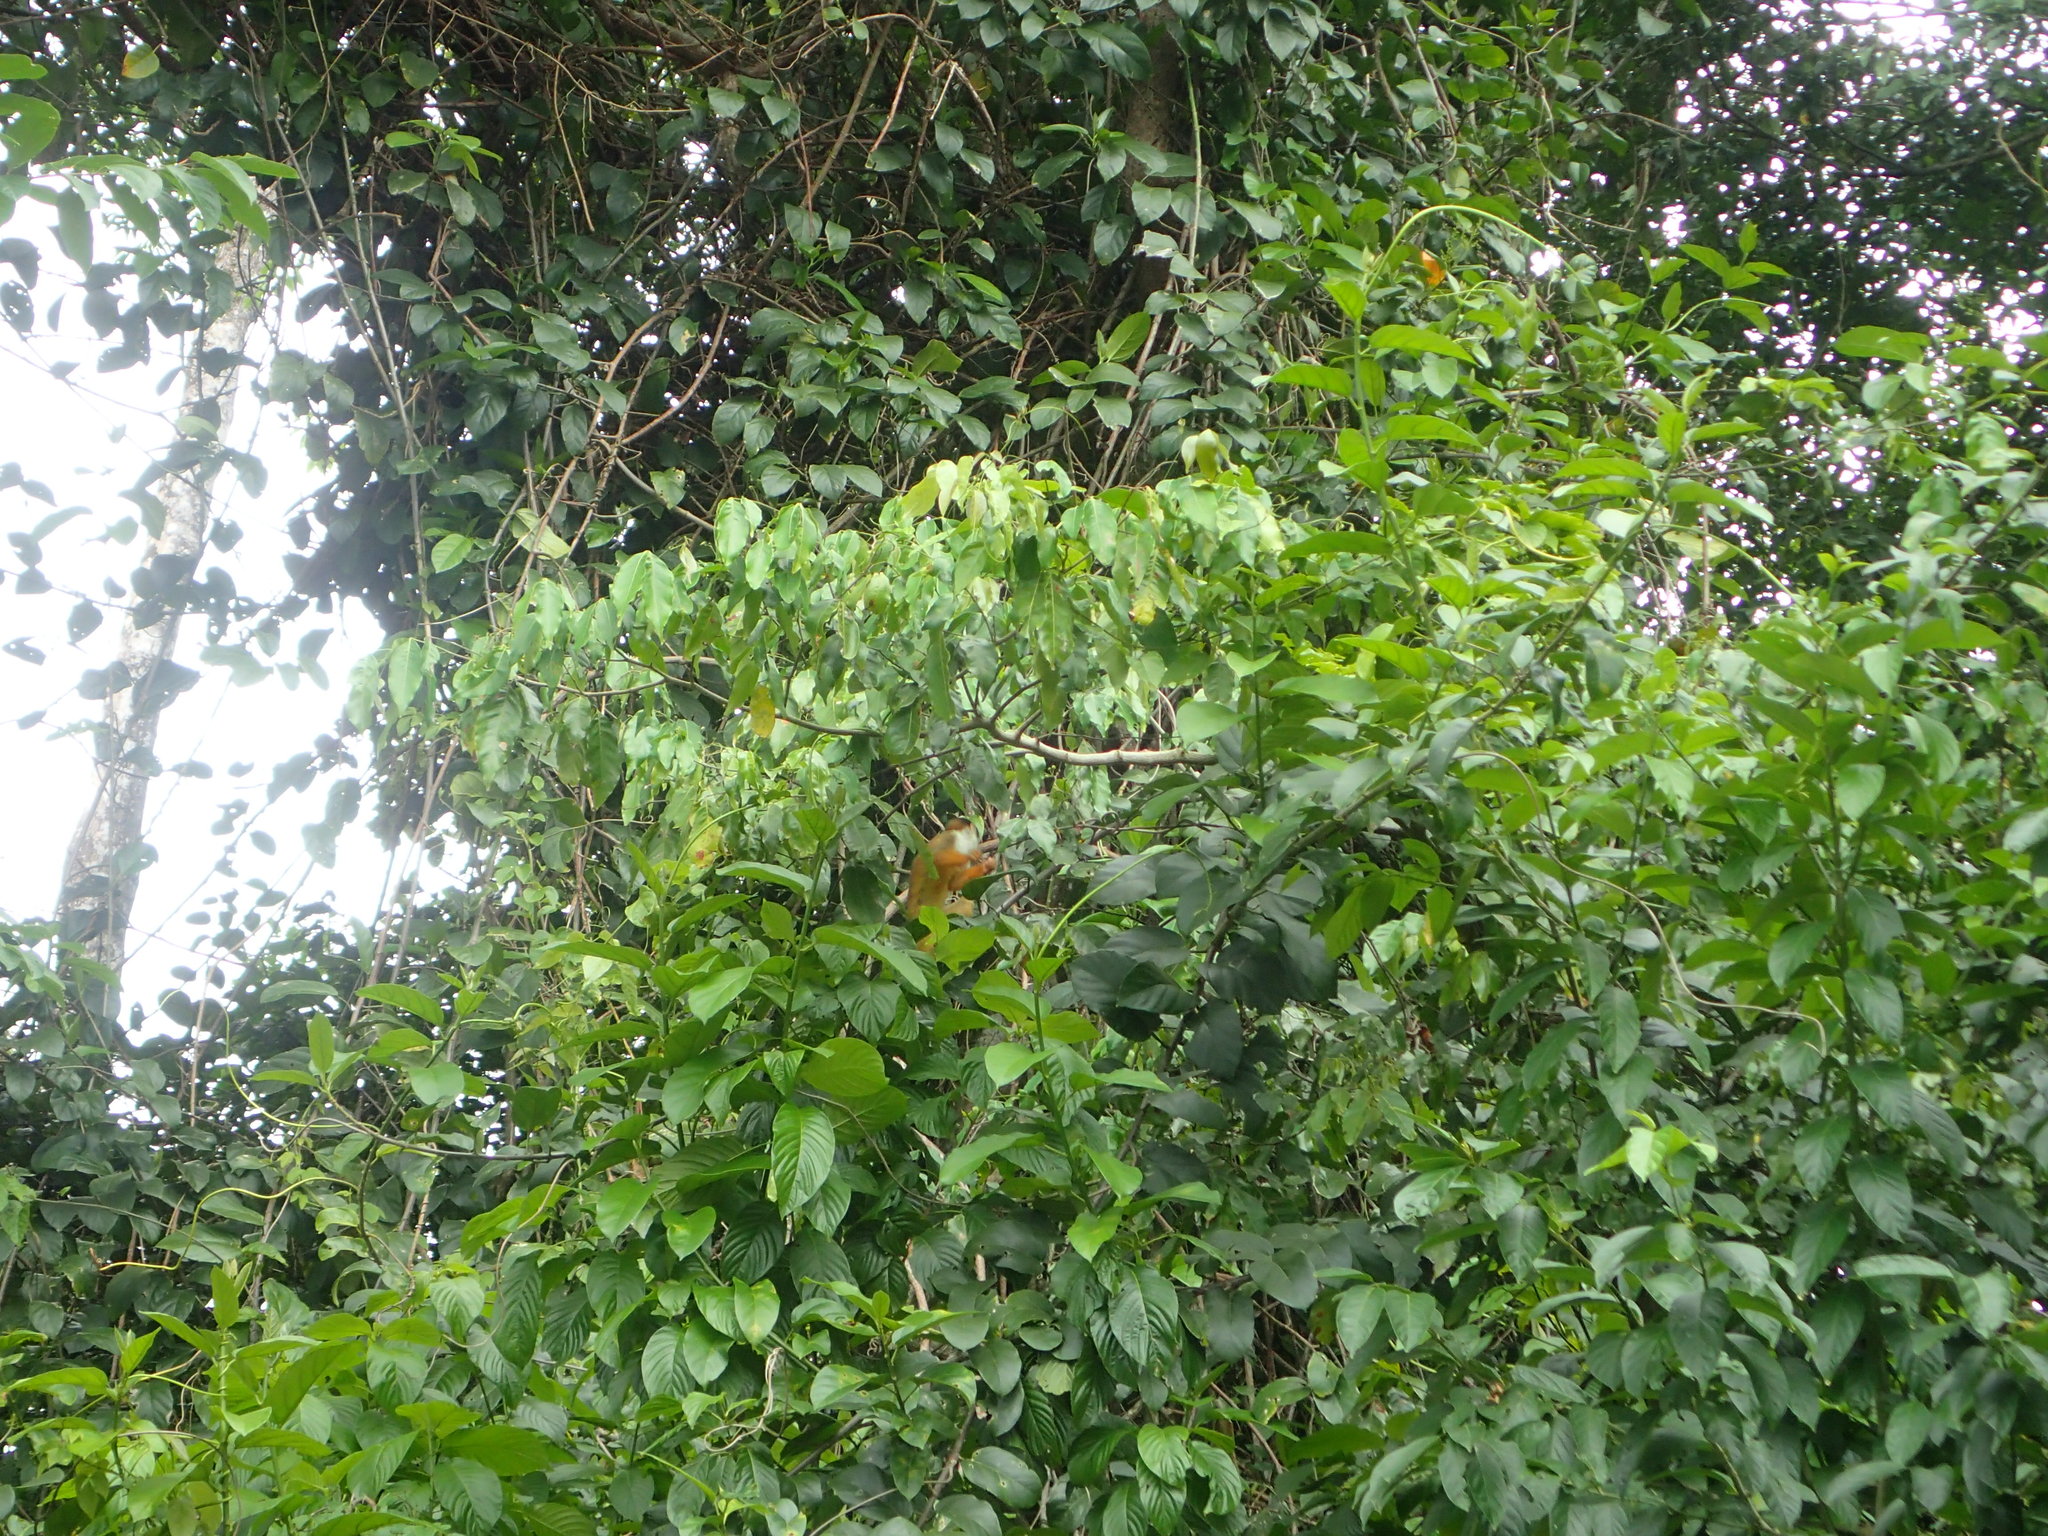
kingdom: Animalia
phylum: Chordata
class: Mammalia
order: Primates
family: Cebidae
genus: Saimiri
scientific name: Saimiri oerstedii
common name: Central american squirrel monkey
